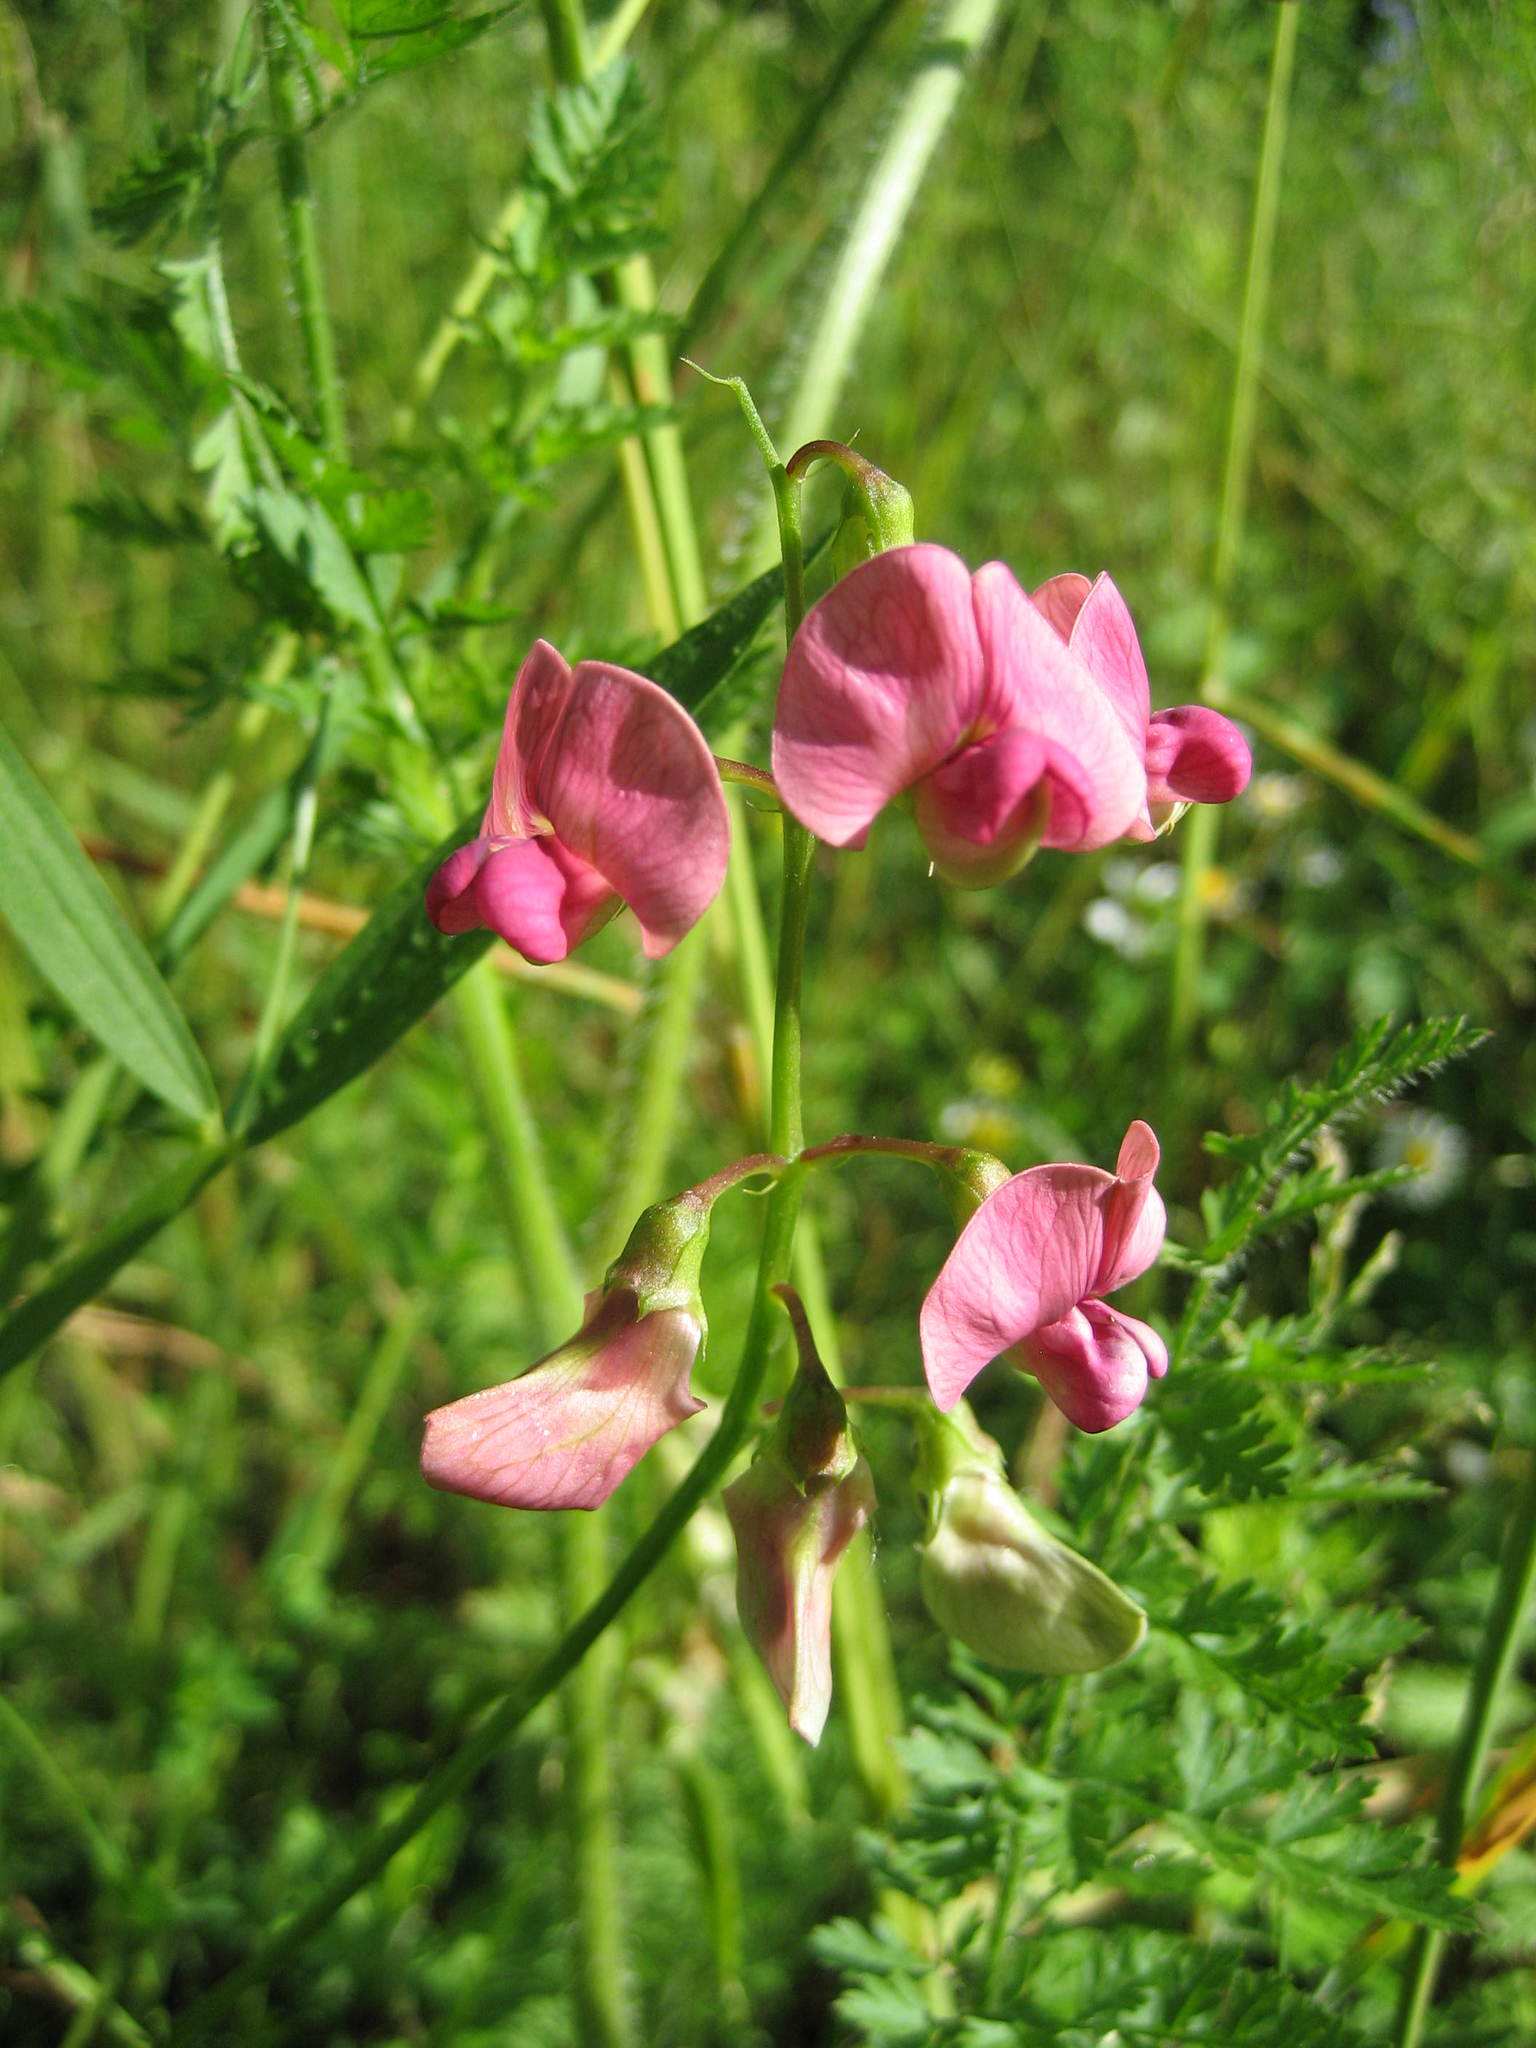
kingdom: Plantae
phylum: Tracheophyta
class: Magnoliopsida
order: Fabales
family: Fabaceae
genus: Lathyrus
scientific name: Lathyrus sylvestris
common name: Flat pea
